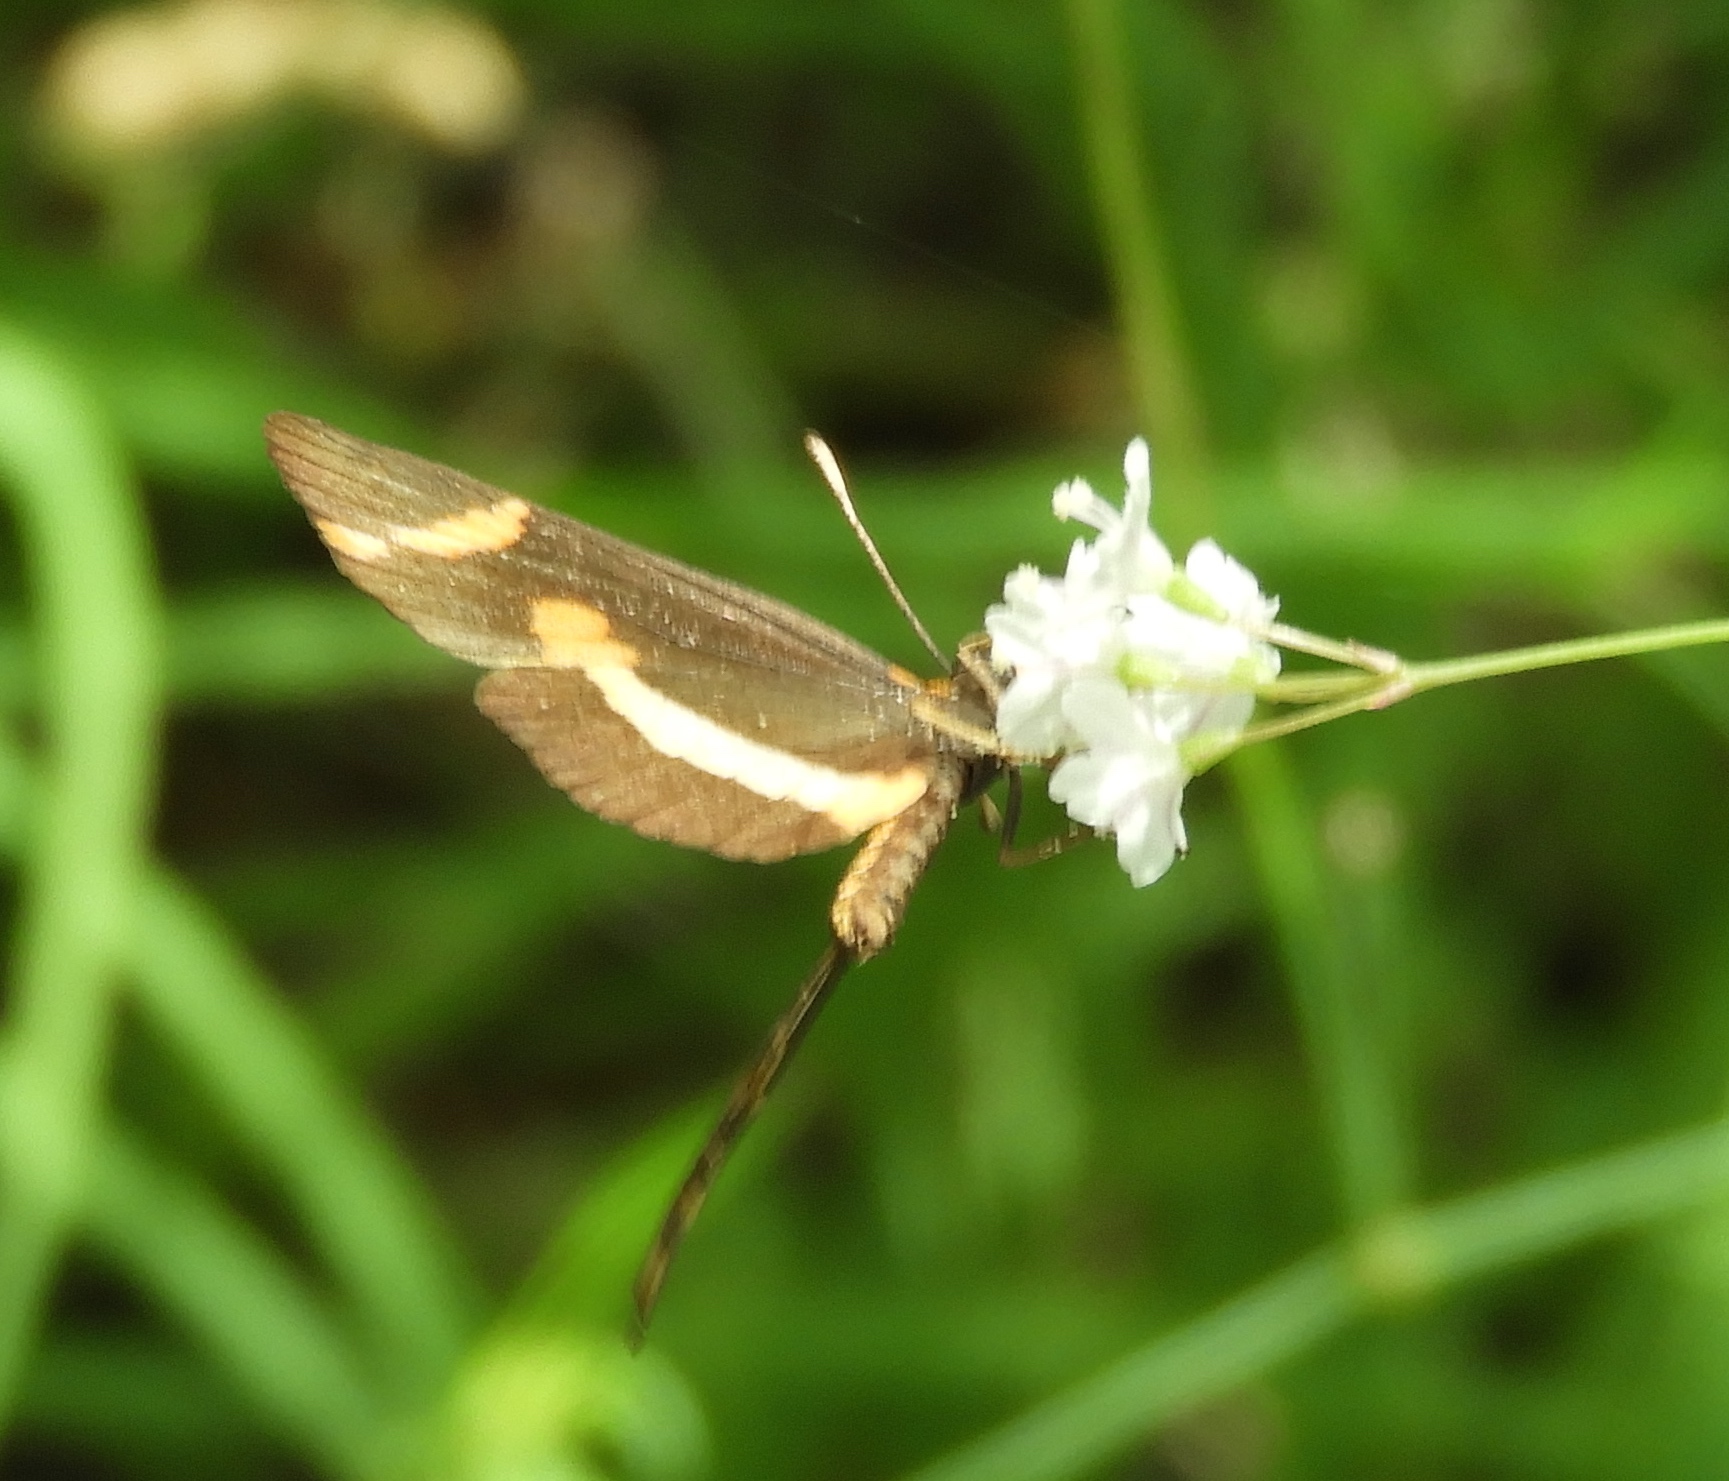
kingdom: Animalia
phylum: Arthropoda
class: Insecta
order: Lepidoptera
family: Nymphalidae
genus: Microtia
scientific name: Microtia elva
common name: Elf
